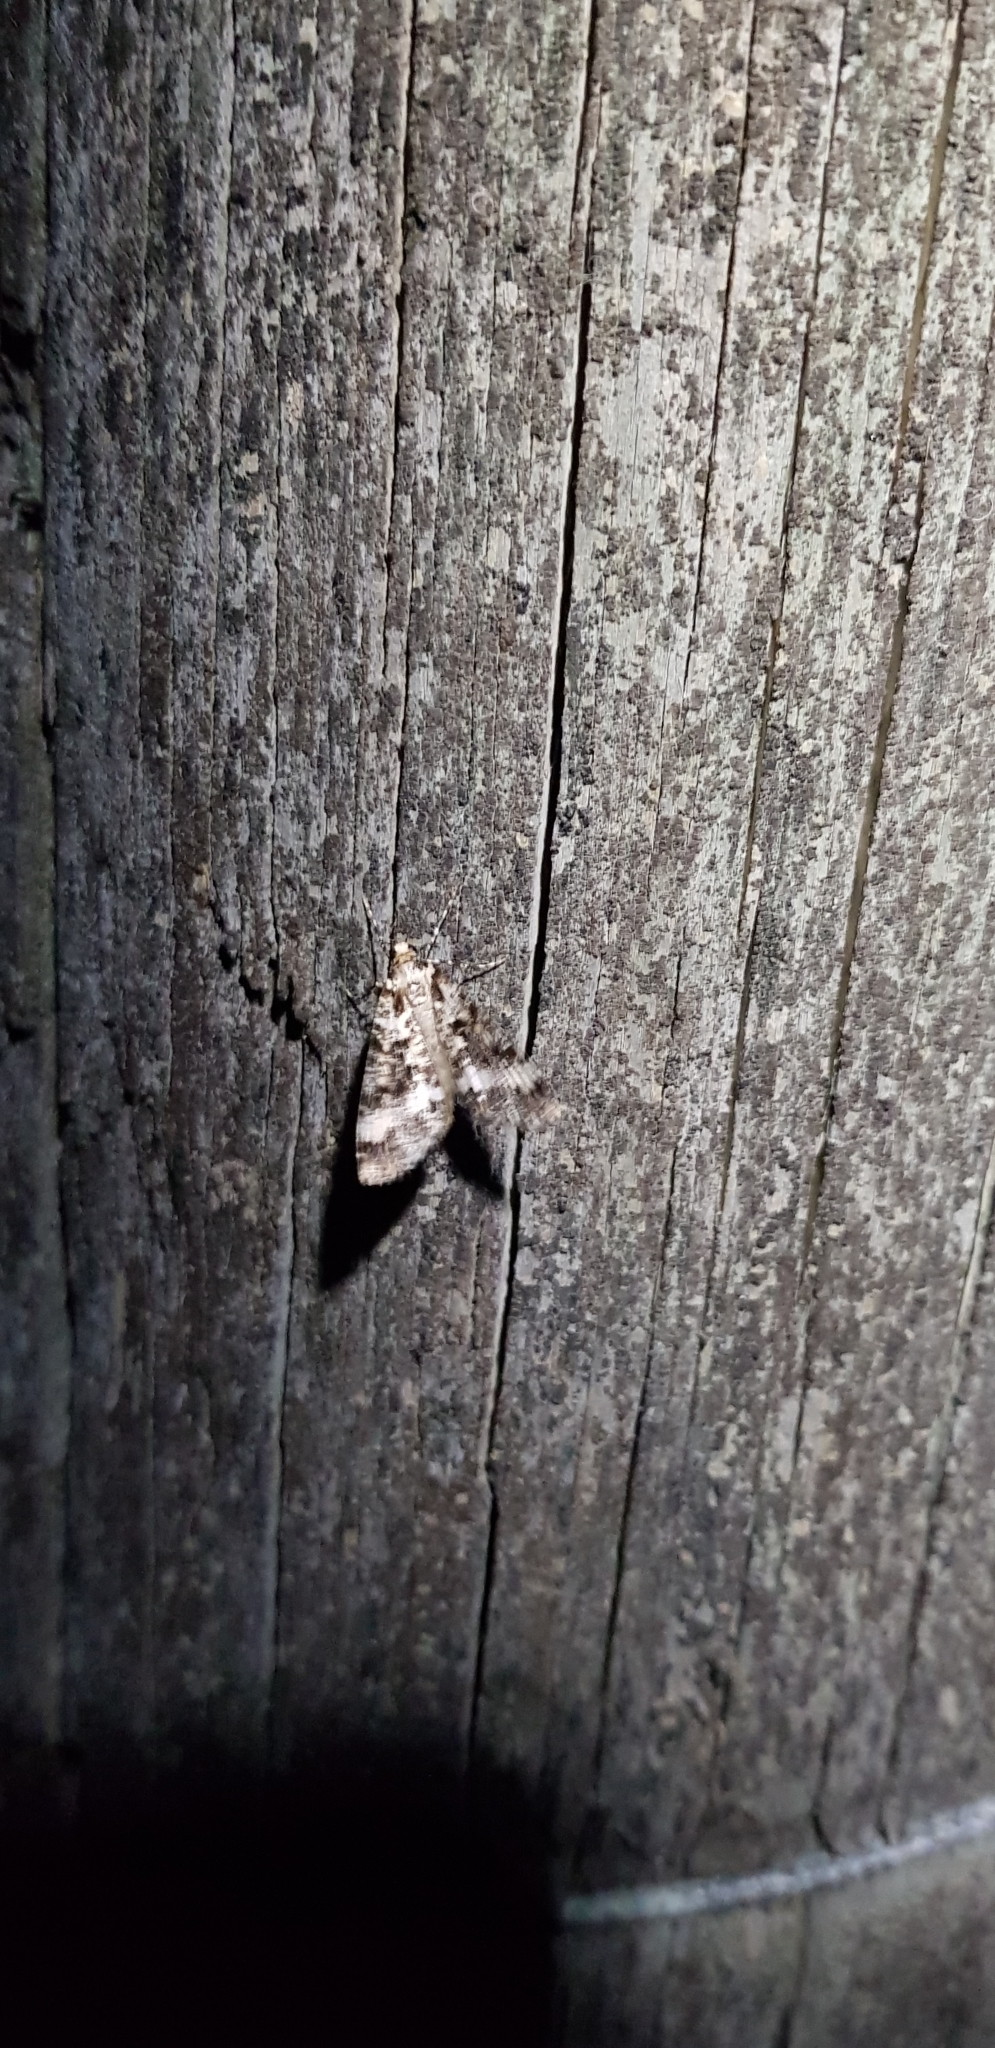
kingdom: Animalia
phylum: Arthropoda
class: Insecta
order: Lepidoptera
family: Geometridae
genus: Pseudocoremia
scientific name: Pseudocoremia leucelaea
